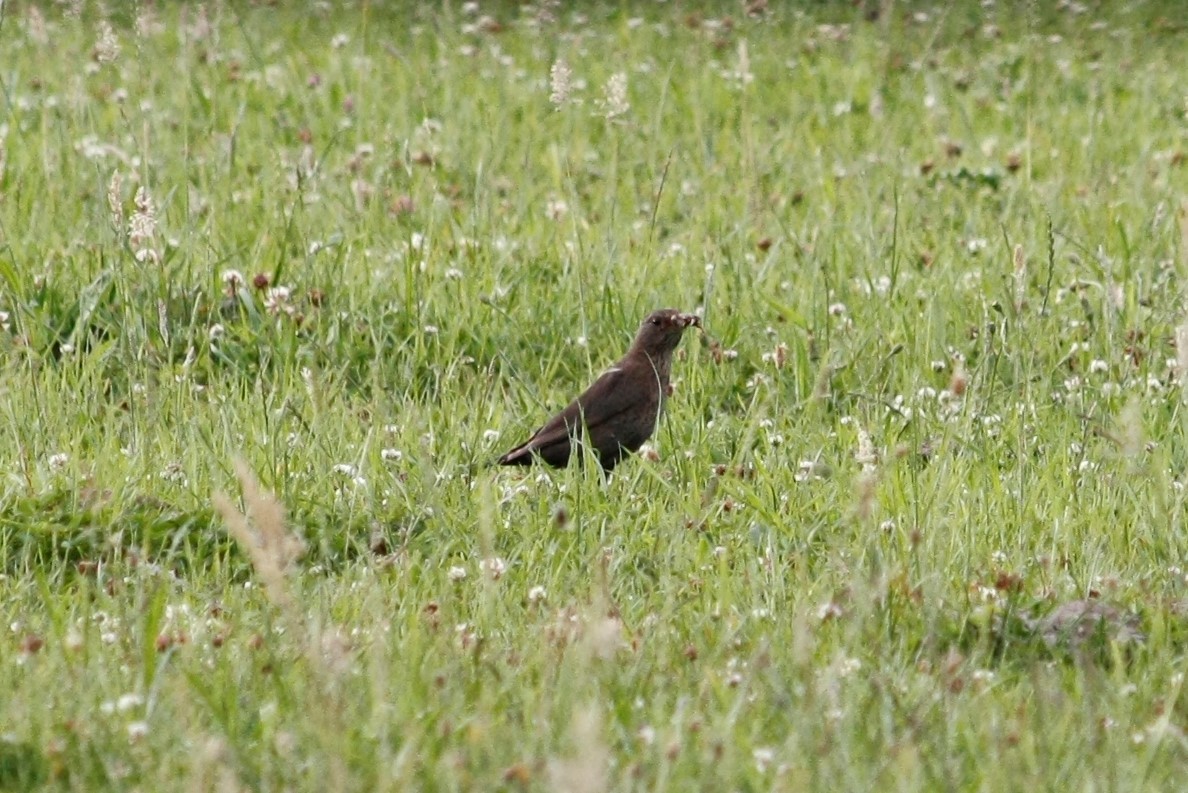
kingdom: Animalia
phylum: Chordata
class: Aves
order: Passeriformes
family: Turdidae
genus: Turdus
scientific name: Turdus merula
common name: Common blackbird
